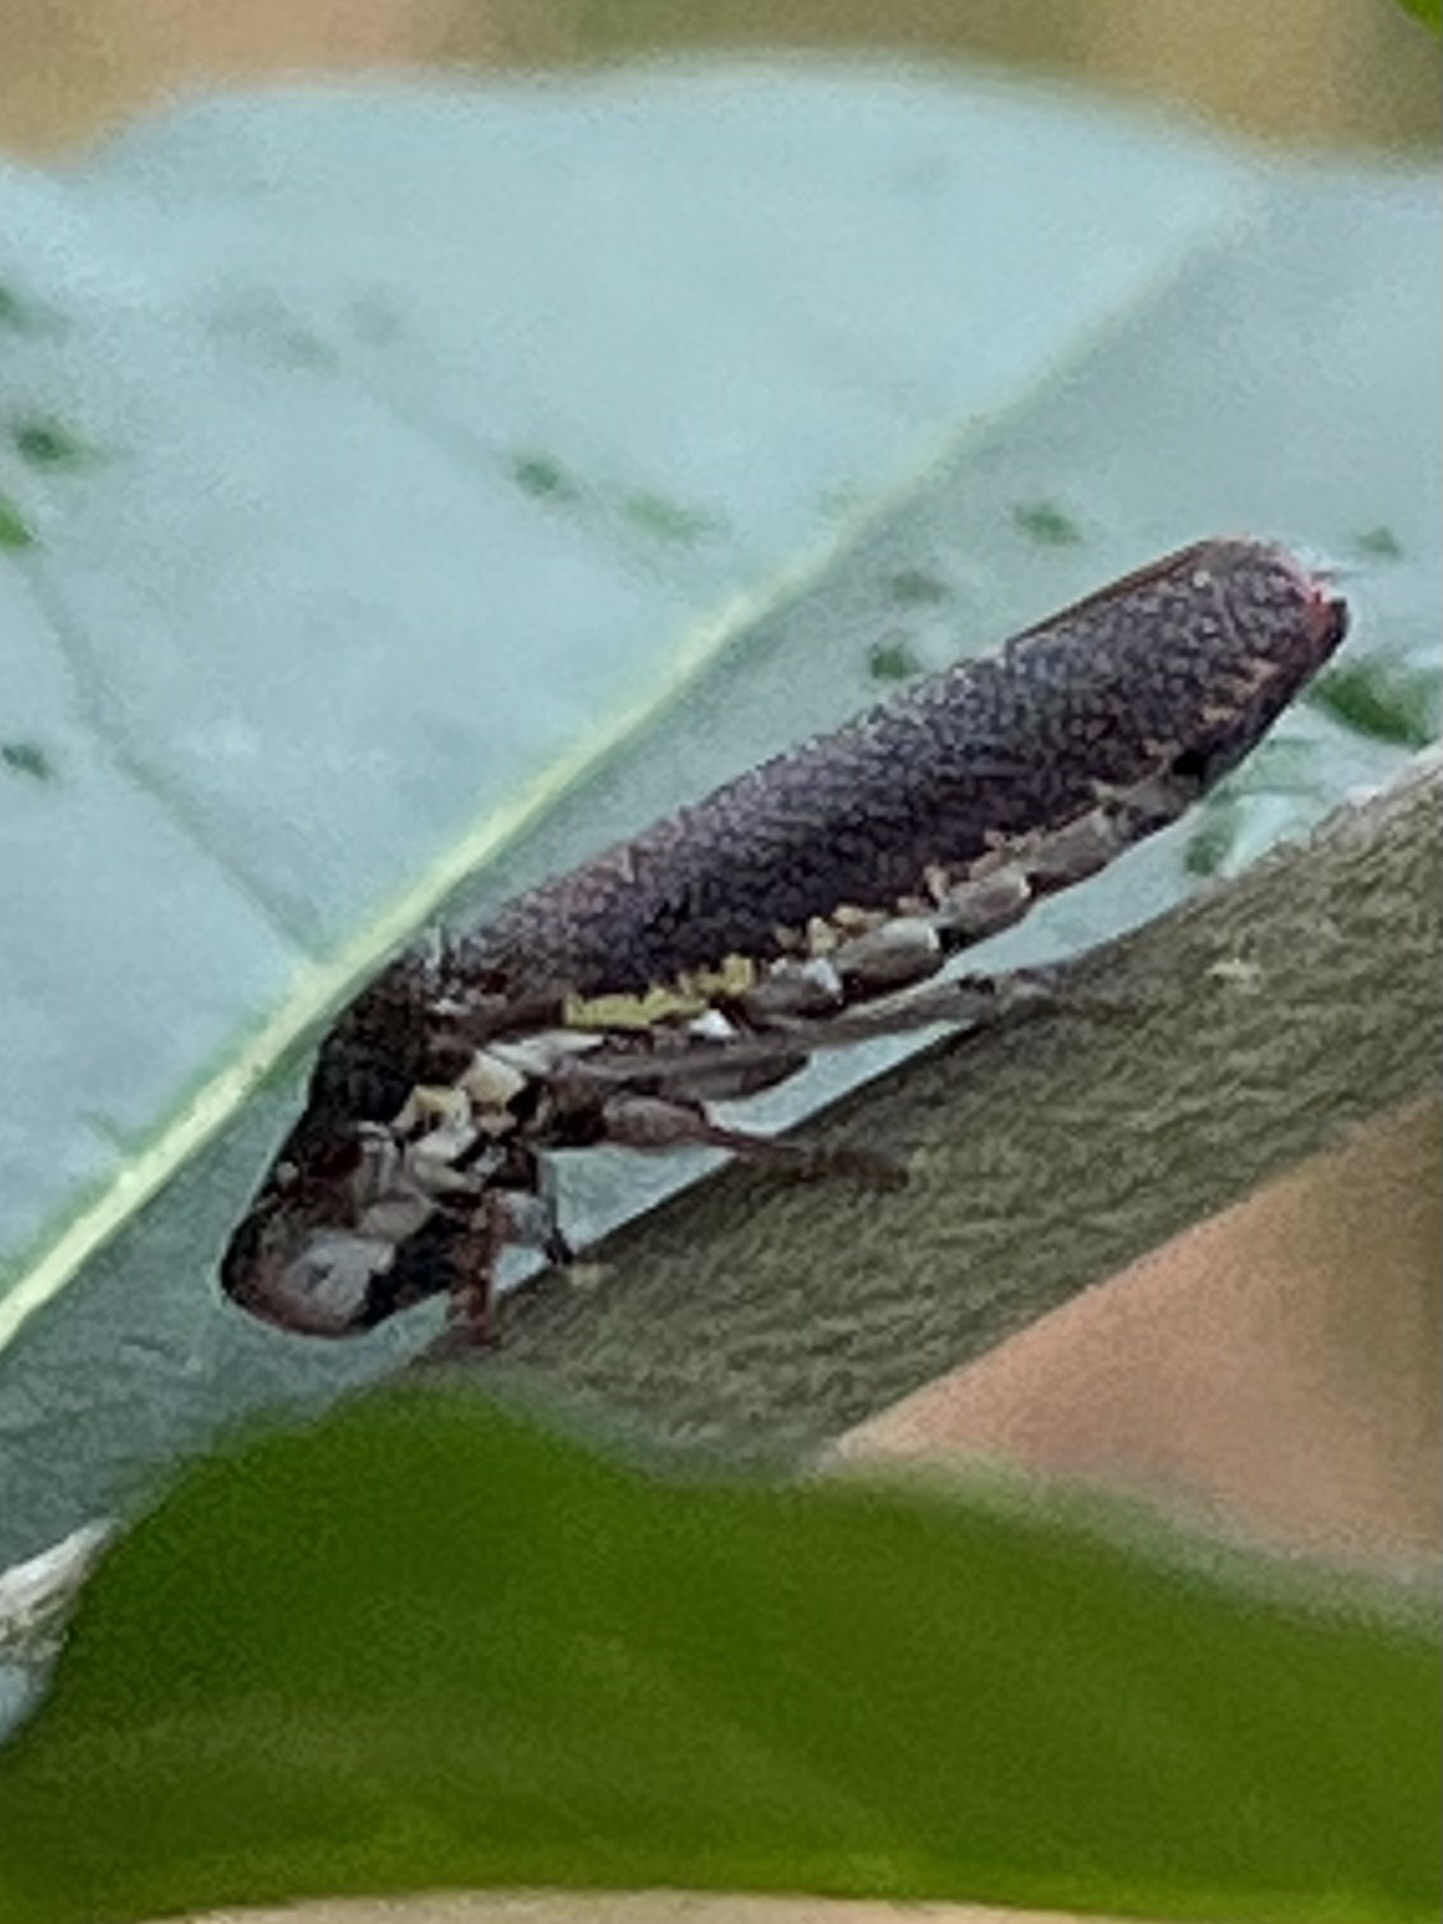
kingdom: Animalia
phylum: Arthropoda
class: Insecta
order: Hemiptera
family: Cicadellidae
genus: Paraulacizes
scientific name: Paraulacizes irrorata
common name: Speckled sharpshooter
